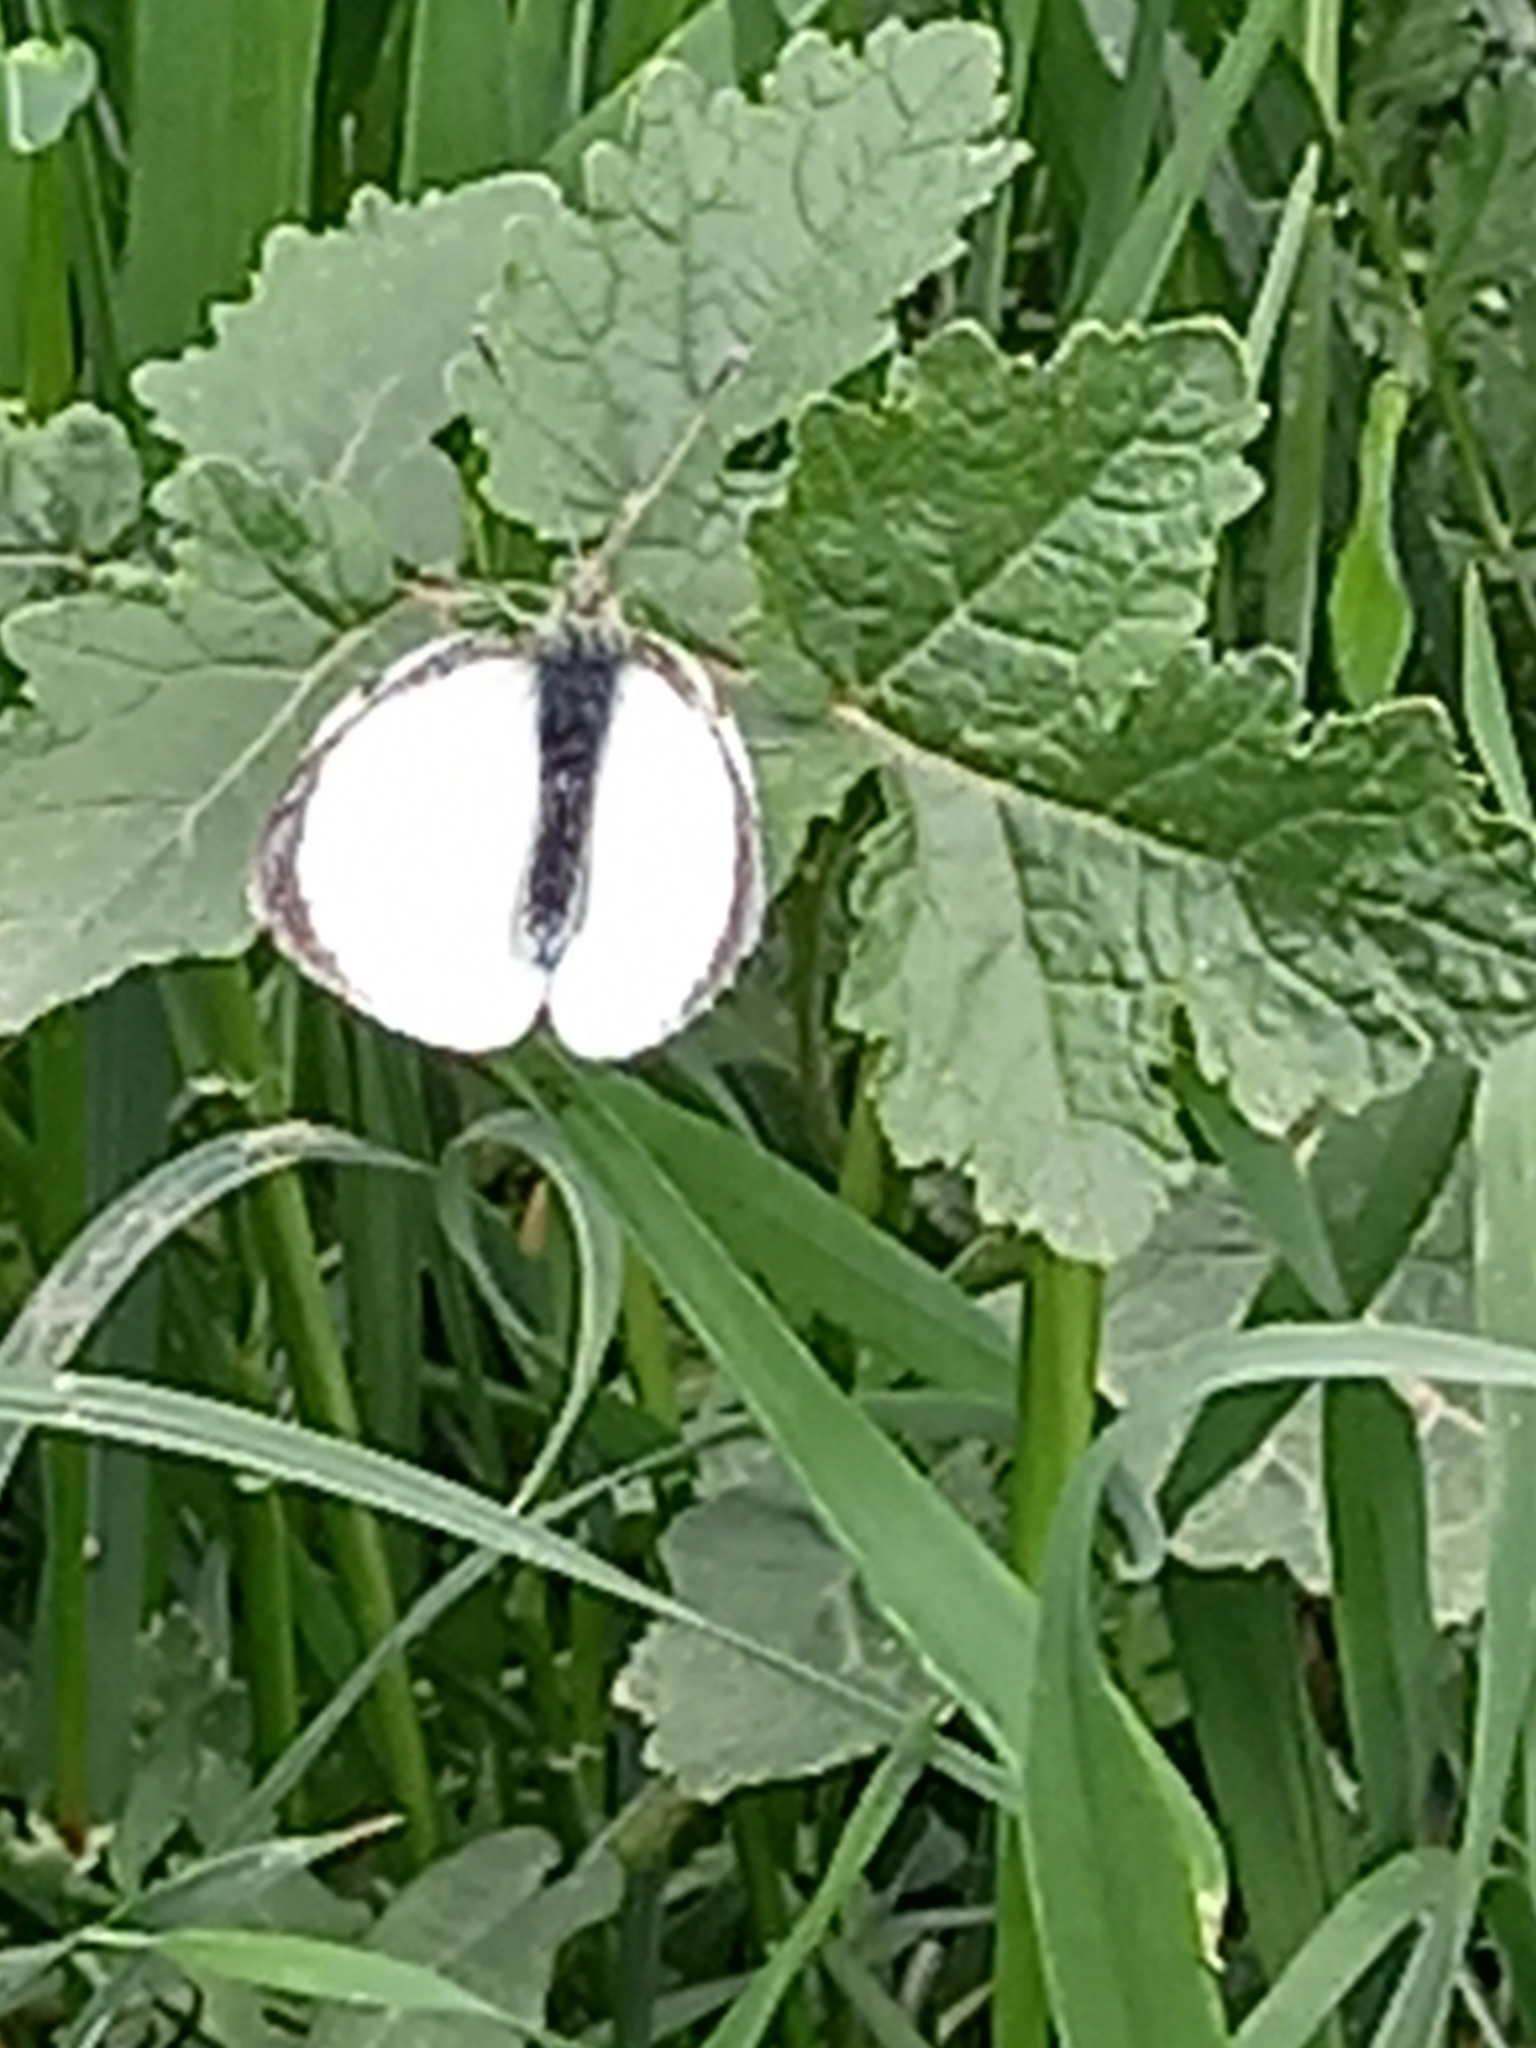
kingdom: Animalia
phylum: Arthropoda
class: Insecta
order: Lepidoptera
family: Pieridae
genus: Pieris
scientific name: Pieris brassicae
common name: Large white
